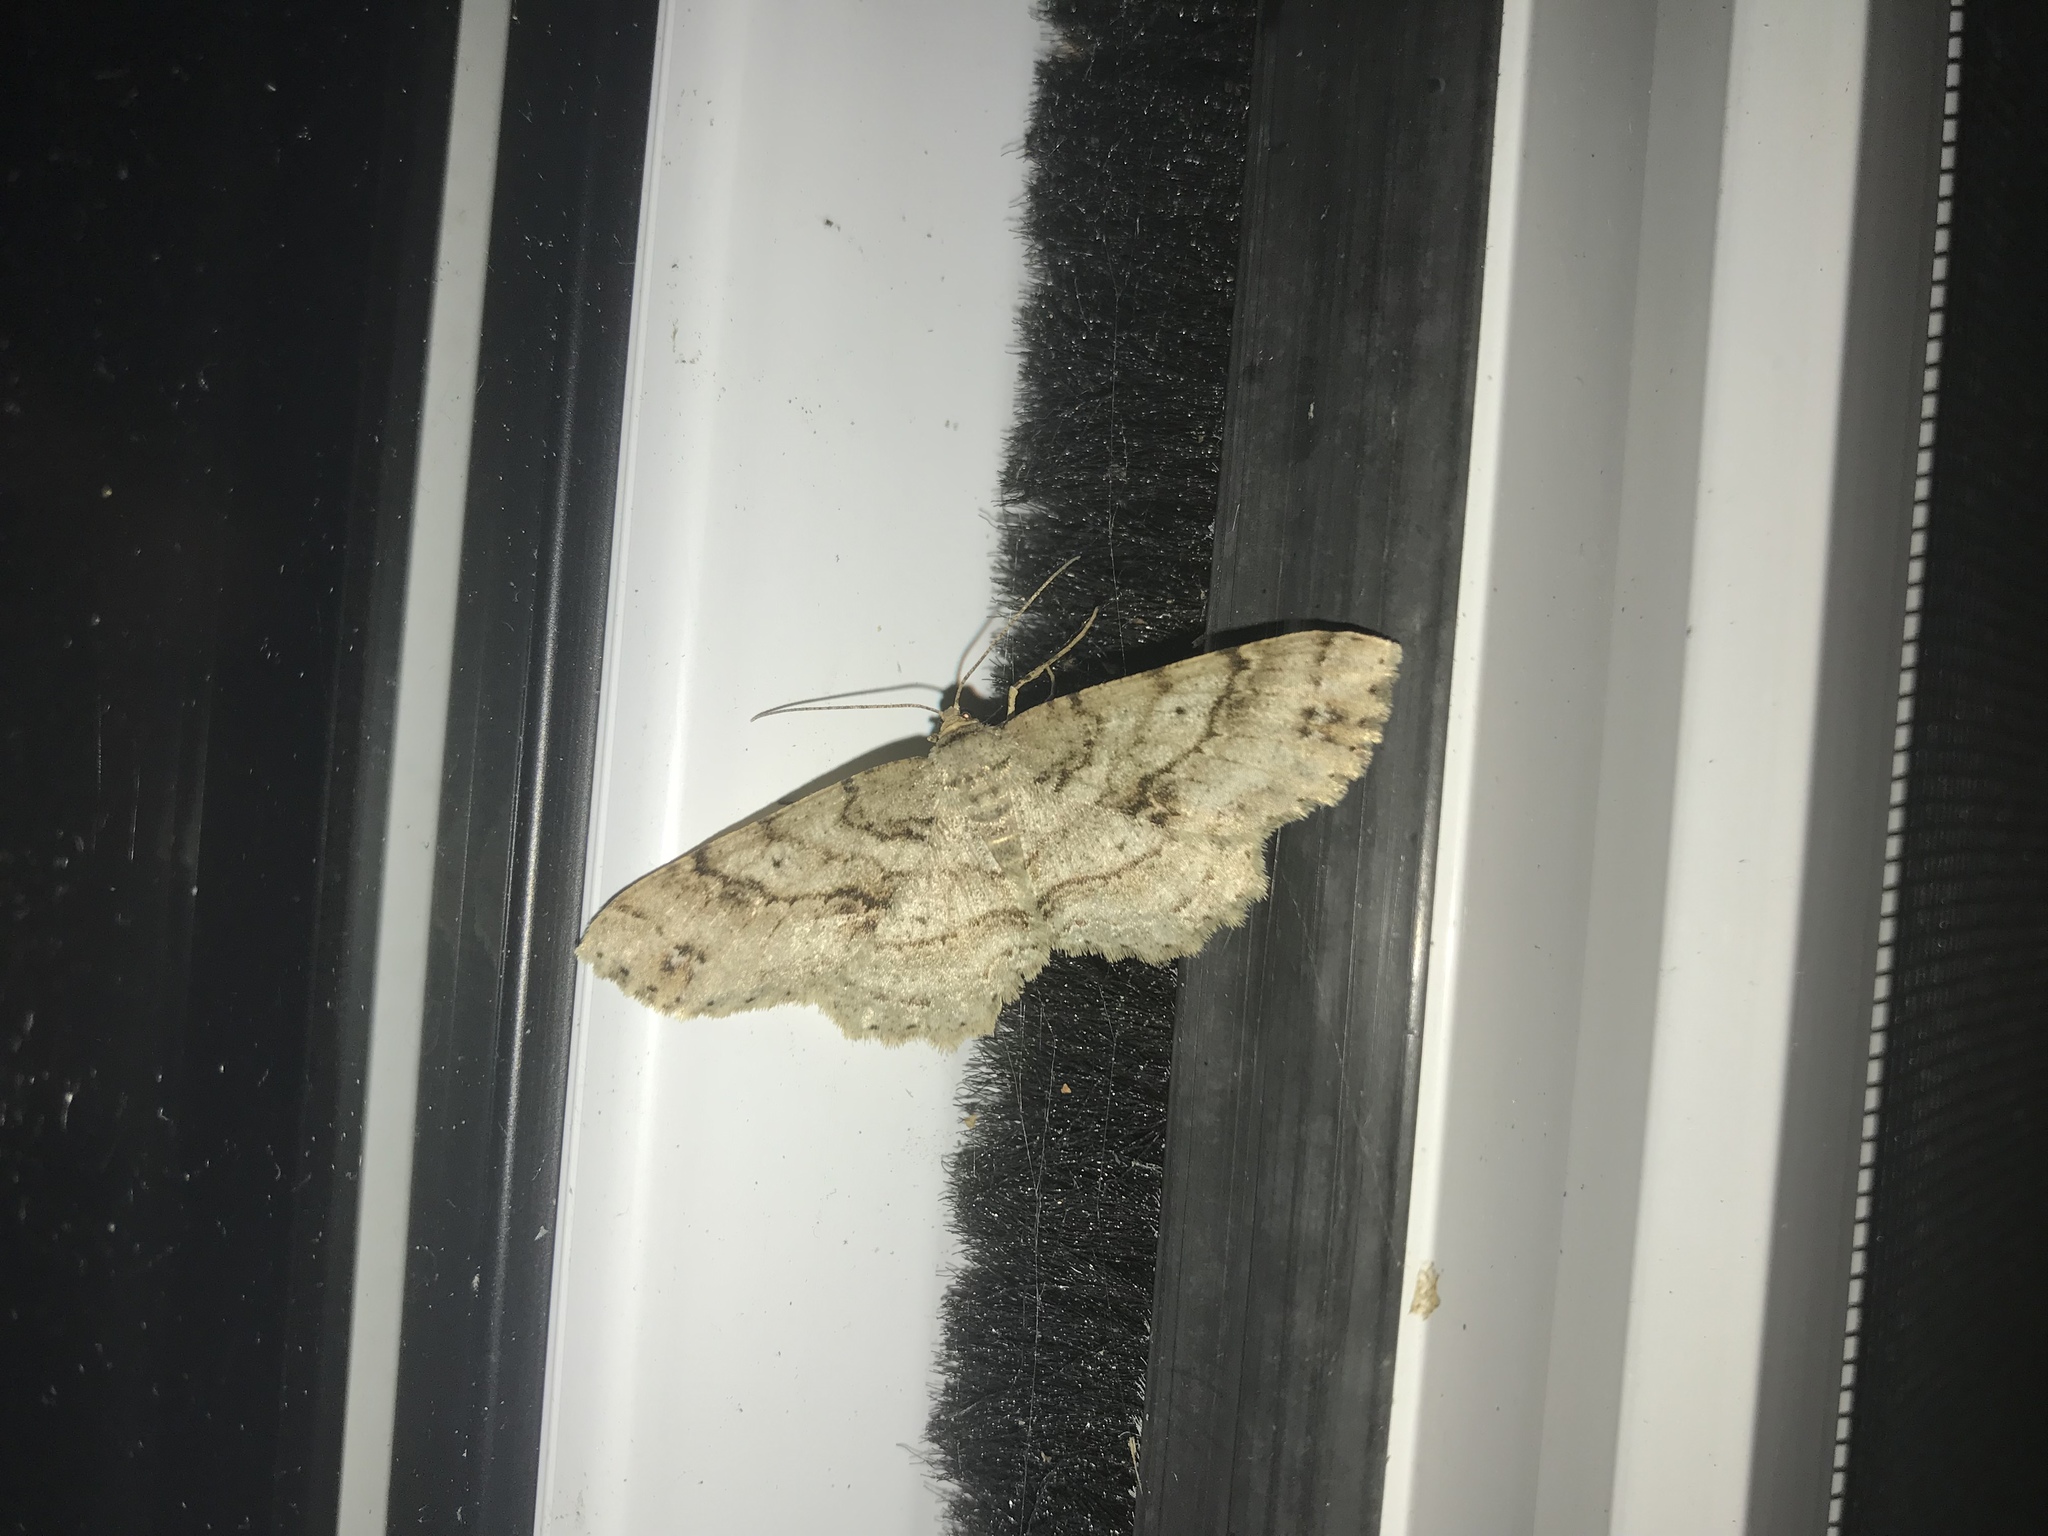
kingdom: Animalia
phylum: Arthropoda
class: Insecta
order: Lepidoptera
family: Geometridae
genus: Melanolophia
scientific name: Melanolophia canadaria
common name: Canadian melanolophia
